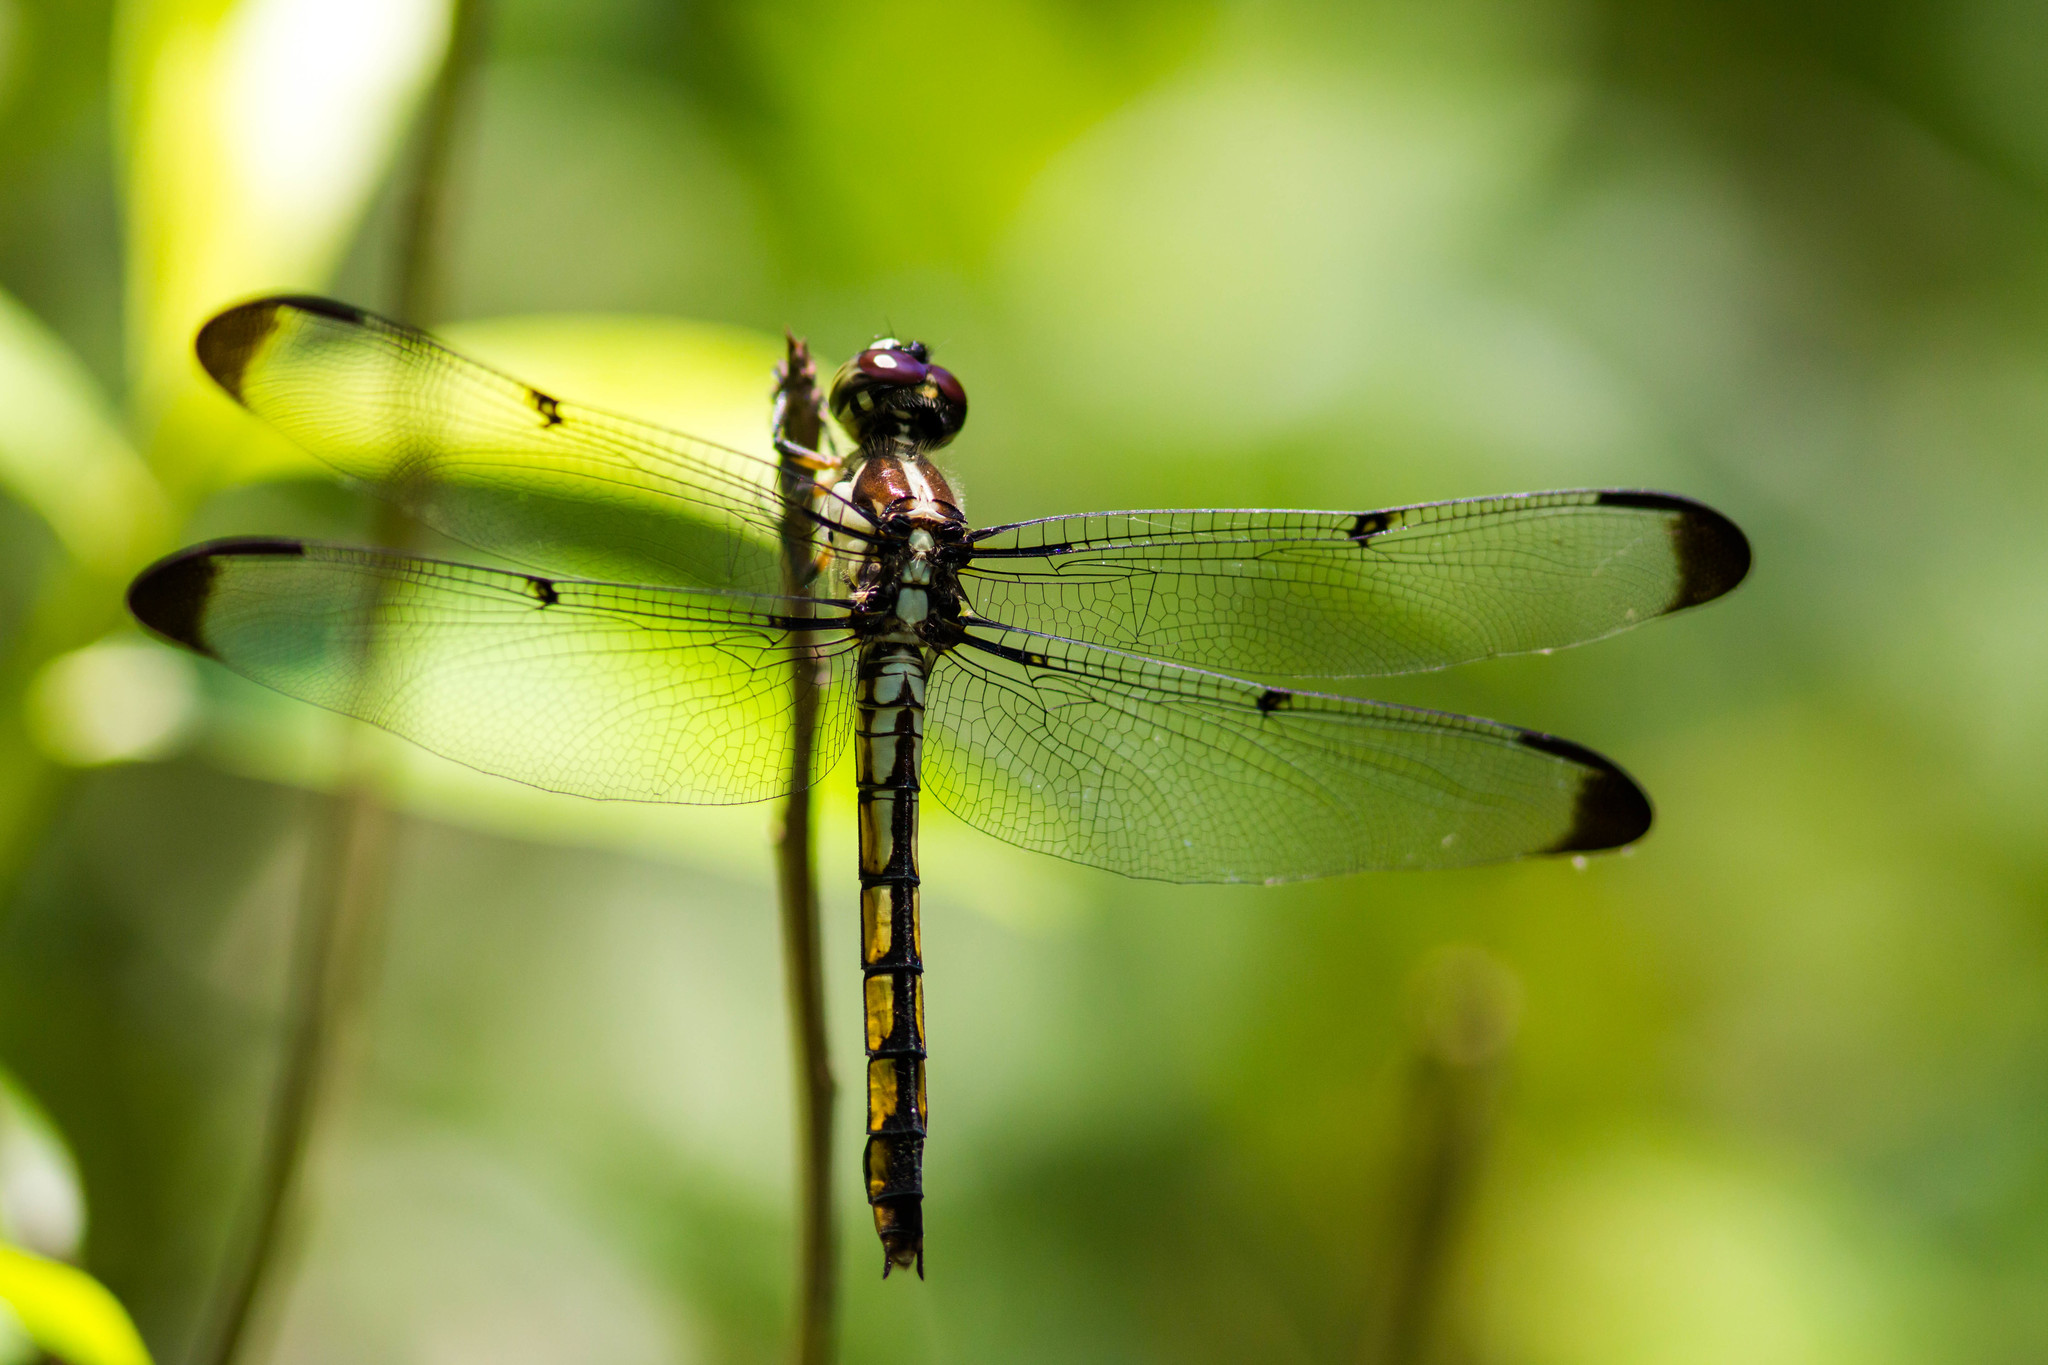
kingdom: Animalia
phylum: Arthropoda
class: Insecta
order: Odonata
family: Libellulidae
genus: Libellula
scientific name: Libellula vibrans
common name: Great blue skimmer
